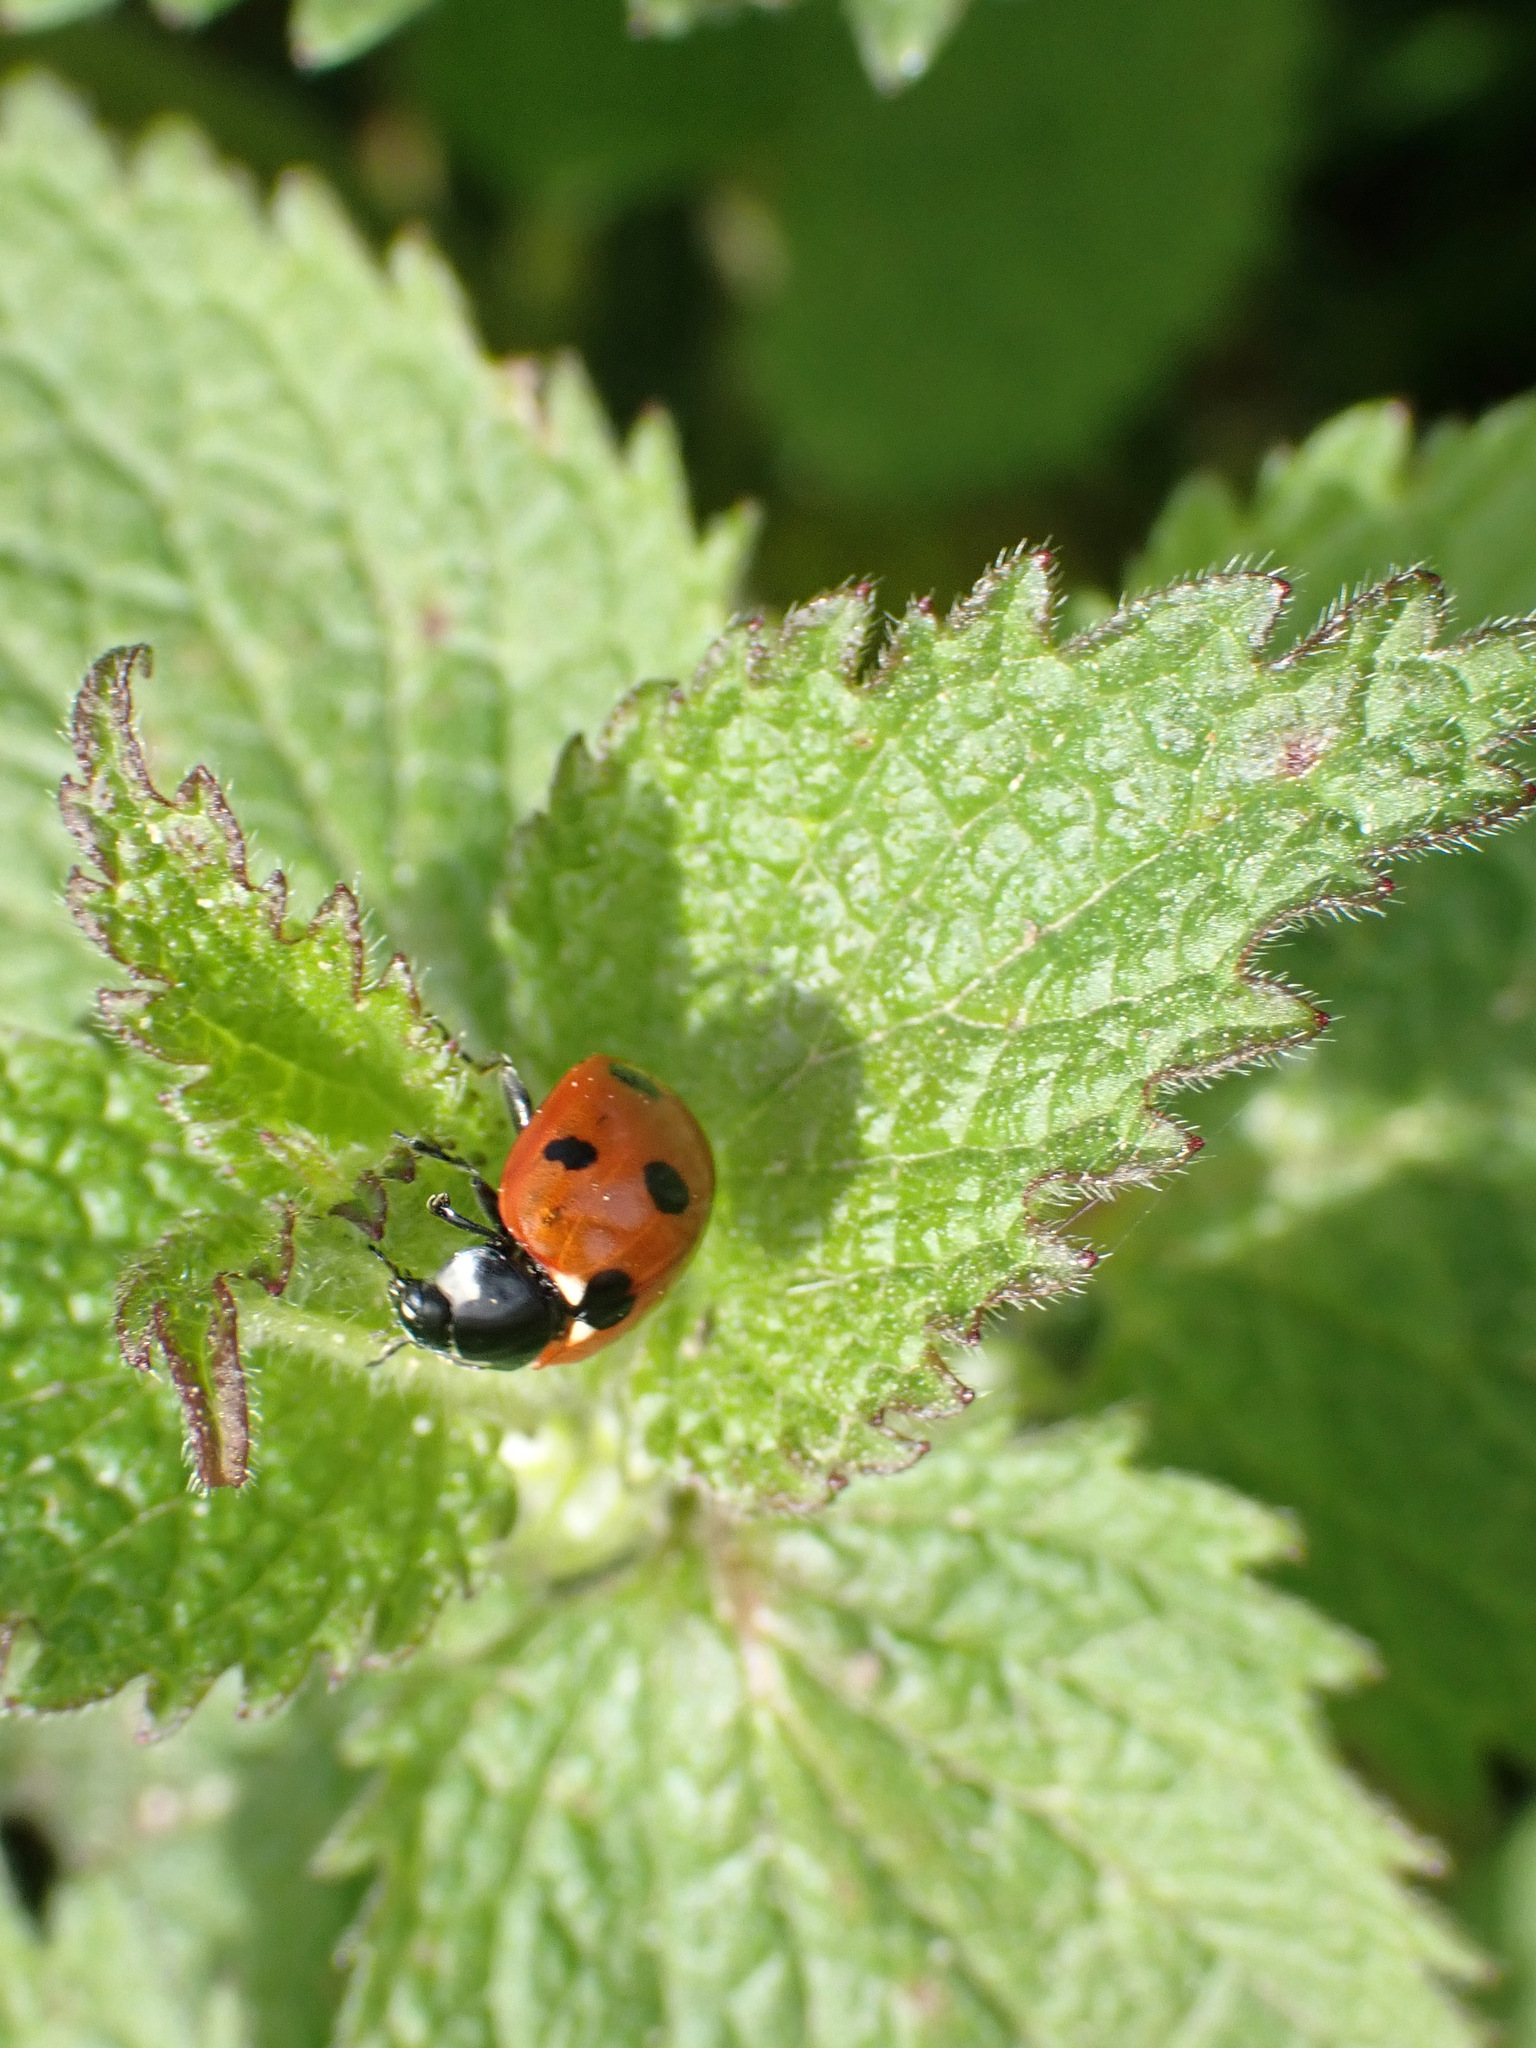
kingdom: Animalia
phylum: Arthropoda
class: Insecta
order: Coleoptera
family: Coccinellidae
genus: Coccinella
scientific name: Coccinella septempunctata
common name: Sevenspotted lady beetle
